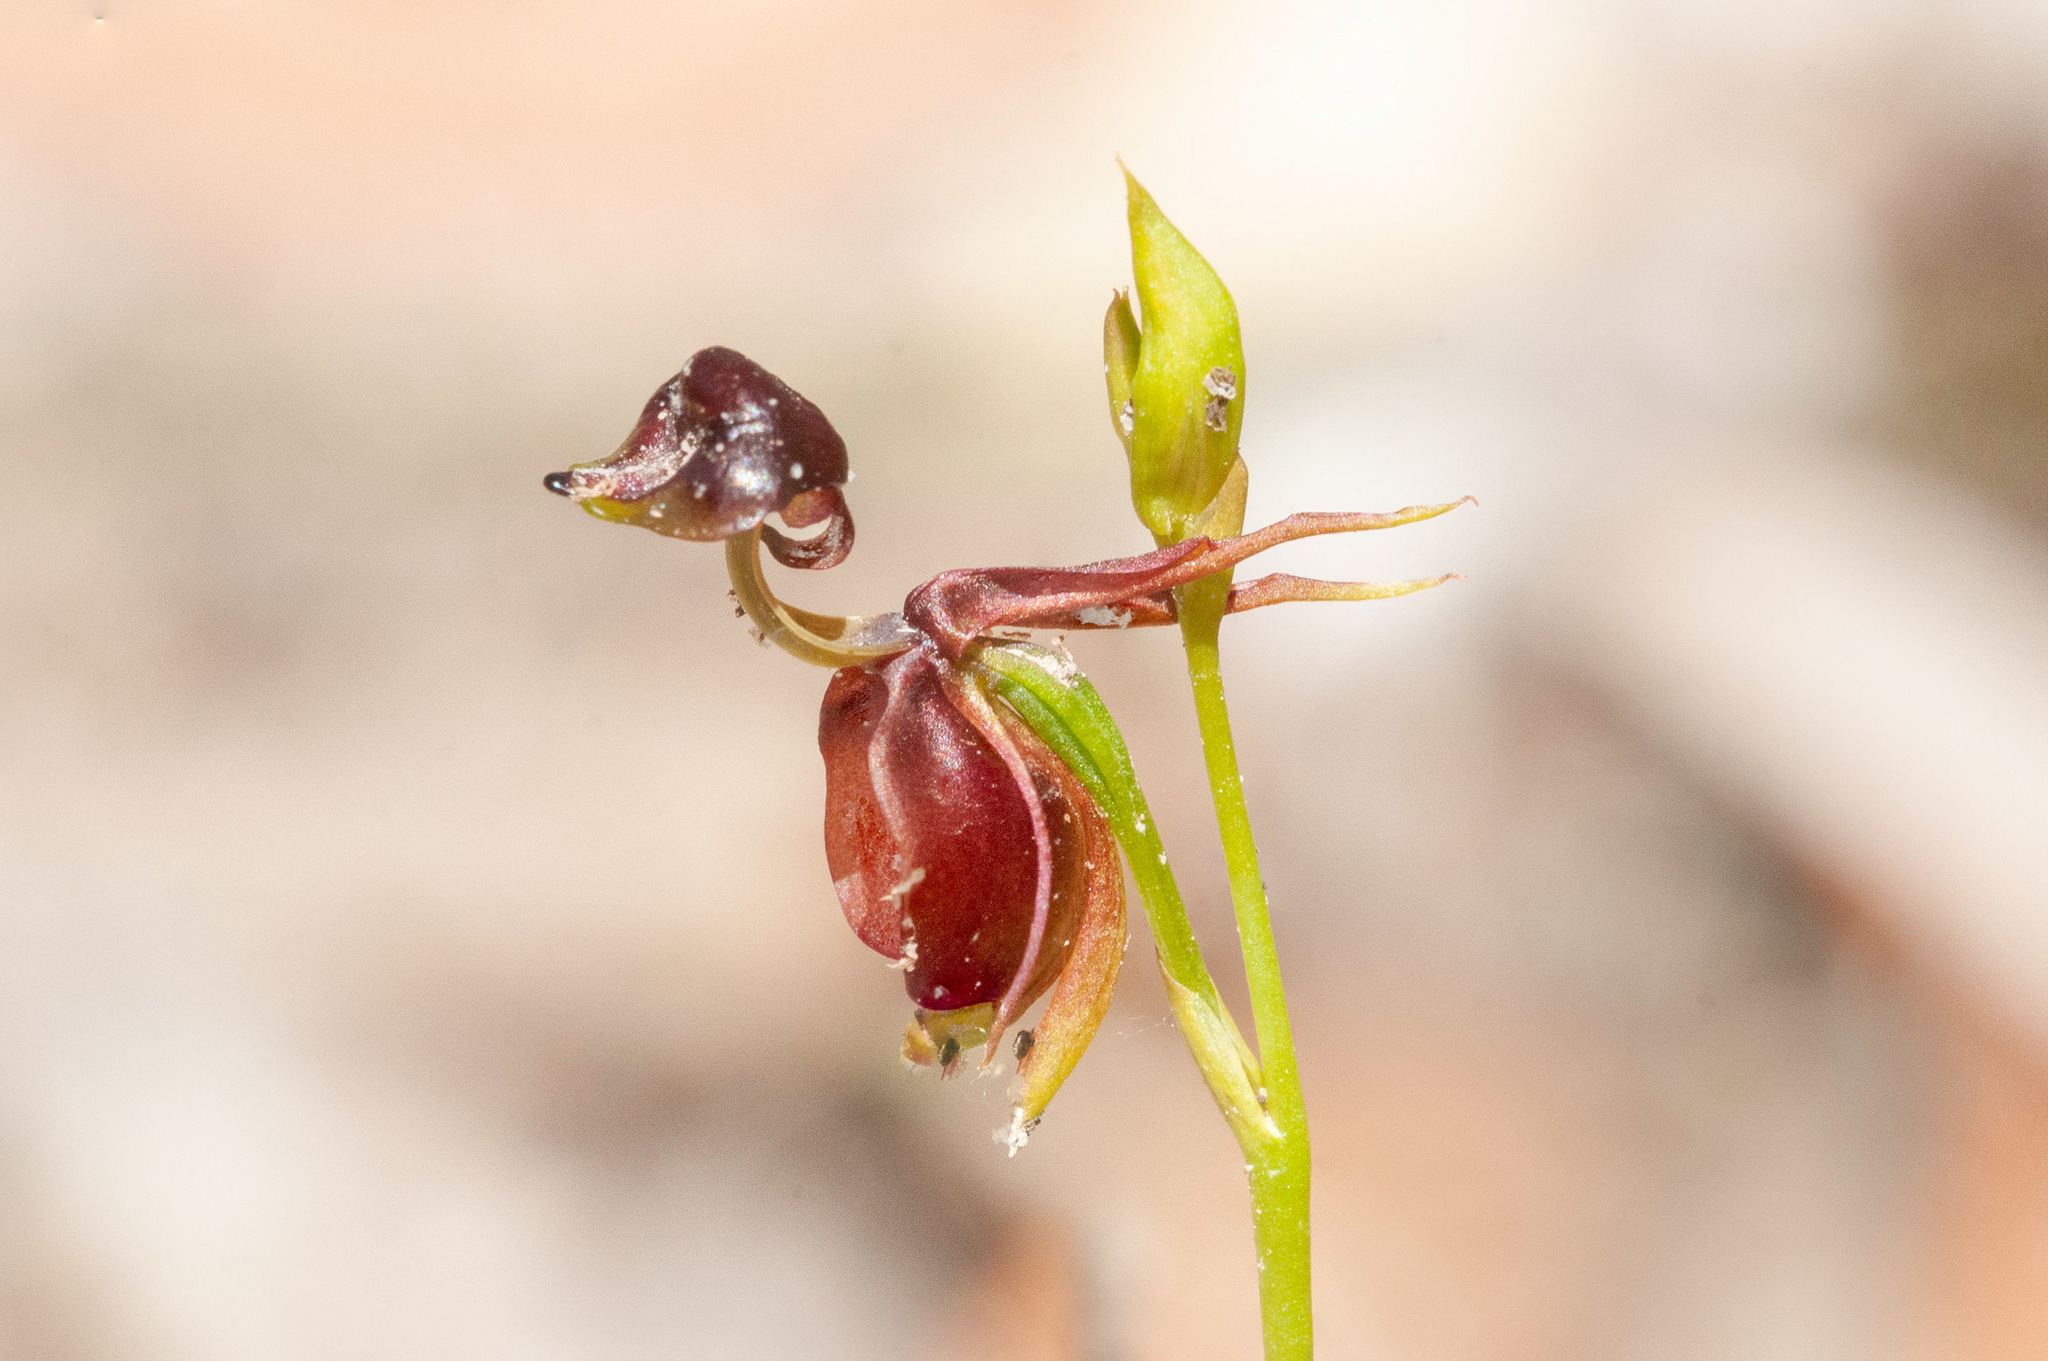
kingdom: Plantae
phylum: Tracheophyta
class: Liliopsida
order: Asparagales
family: Orchidaceae
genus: Caleana
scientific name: Caleana major
